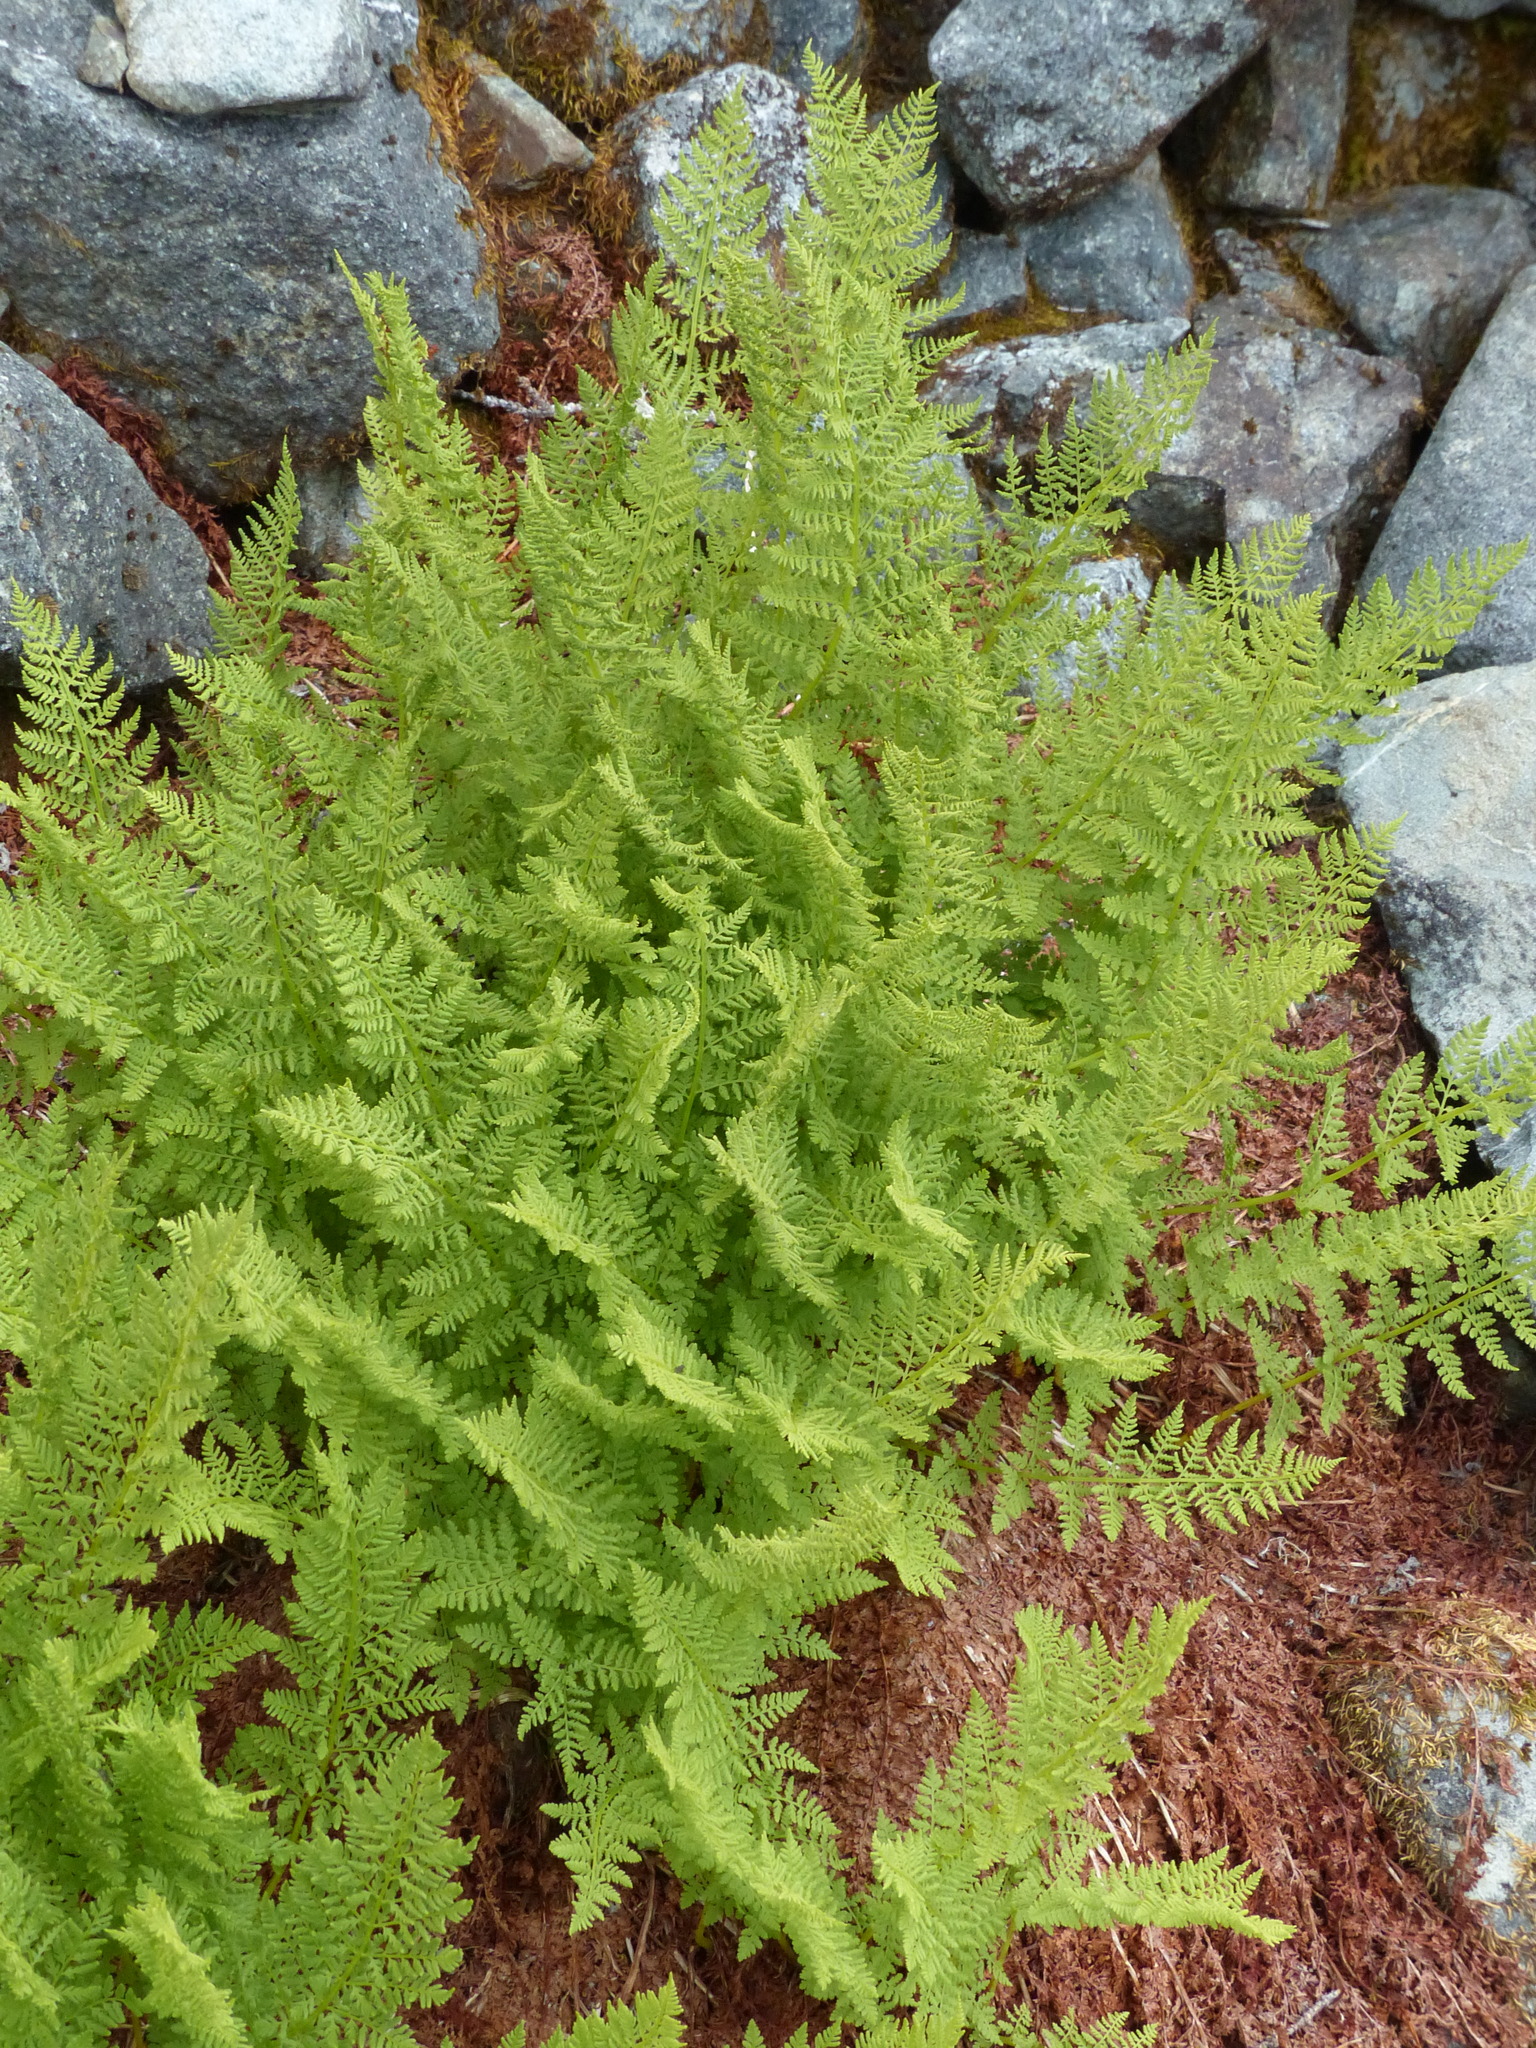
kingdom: Plantae
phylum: Tracheophyta
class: Polypodiopsida
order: Polypodiales
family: Athyriaceae
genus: Athyrium
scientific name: Athyrium americanum
